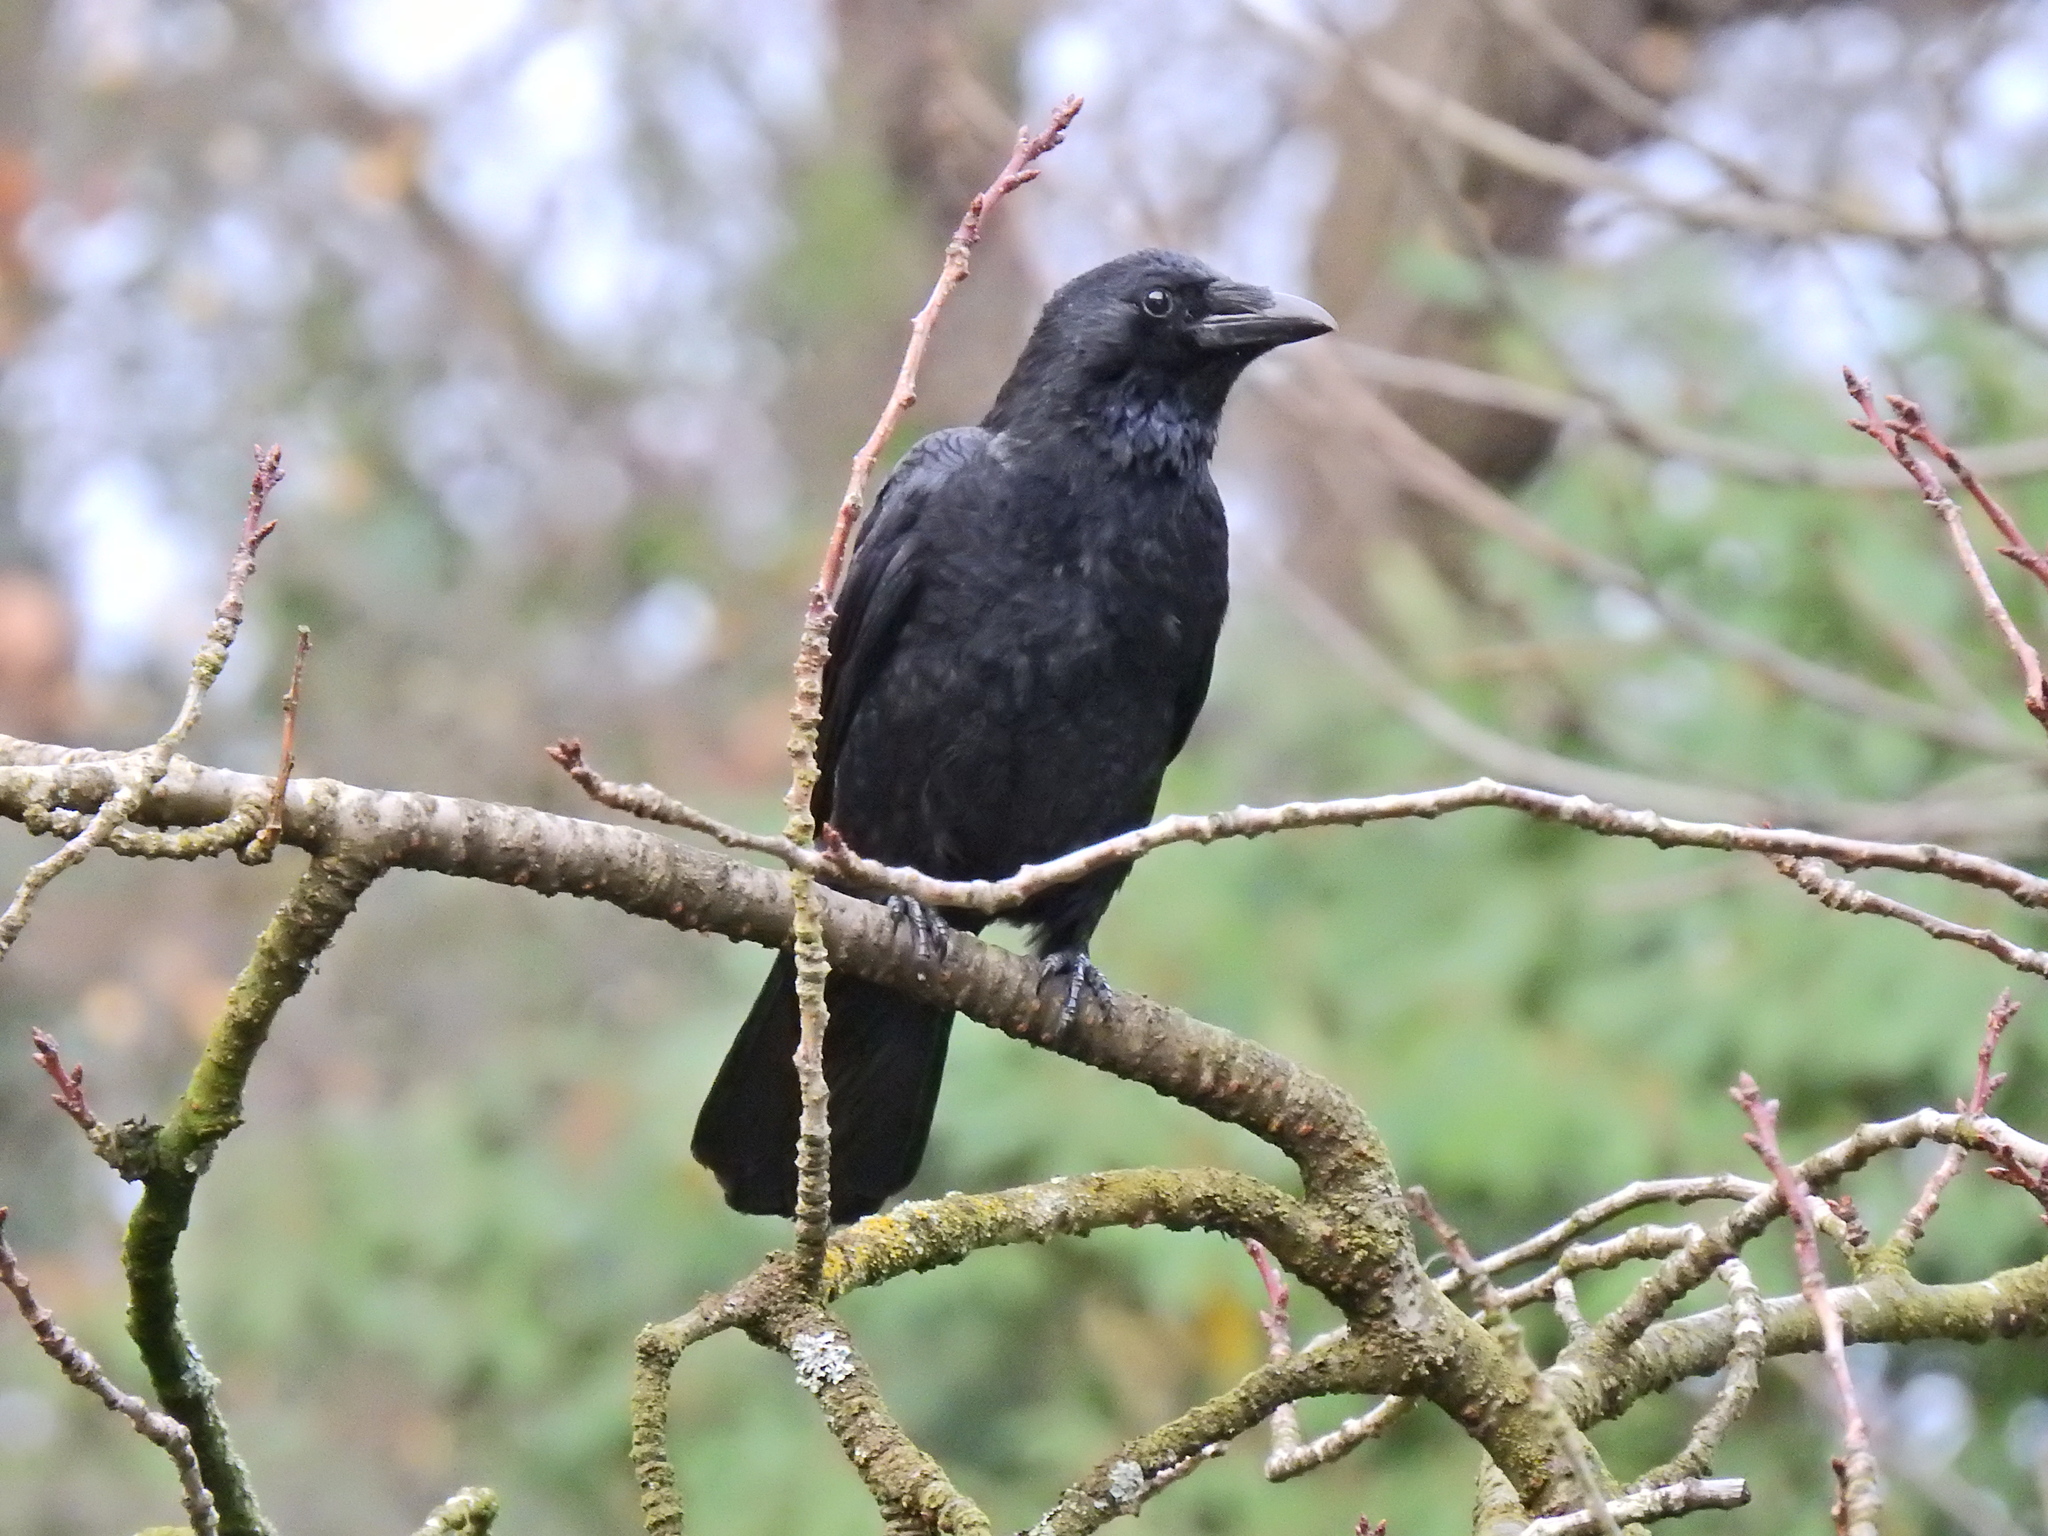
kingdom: Animalia
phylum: Chordata
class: Aves
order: Passeriformes
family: Corvidae
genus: Corvus
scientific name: Corvus corone
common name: Carrion crow
